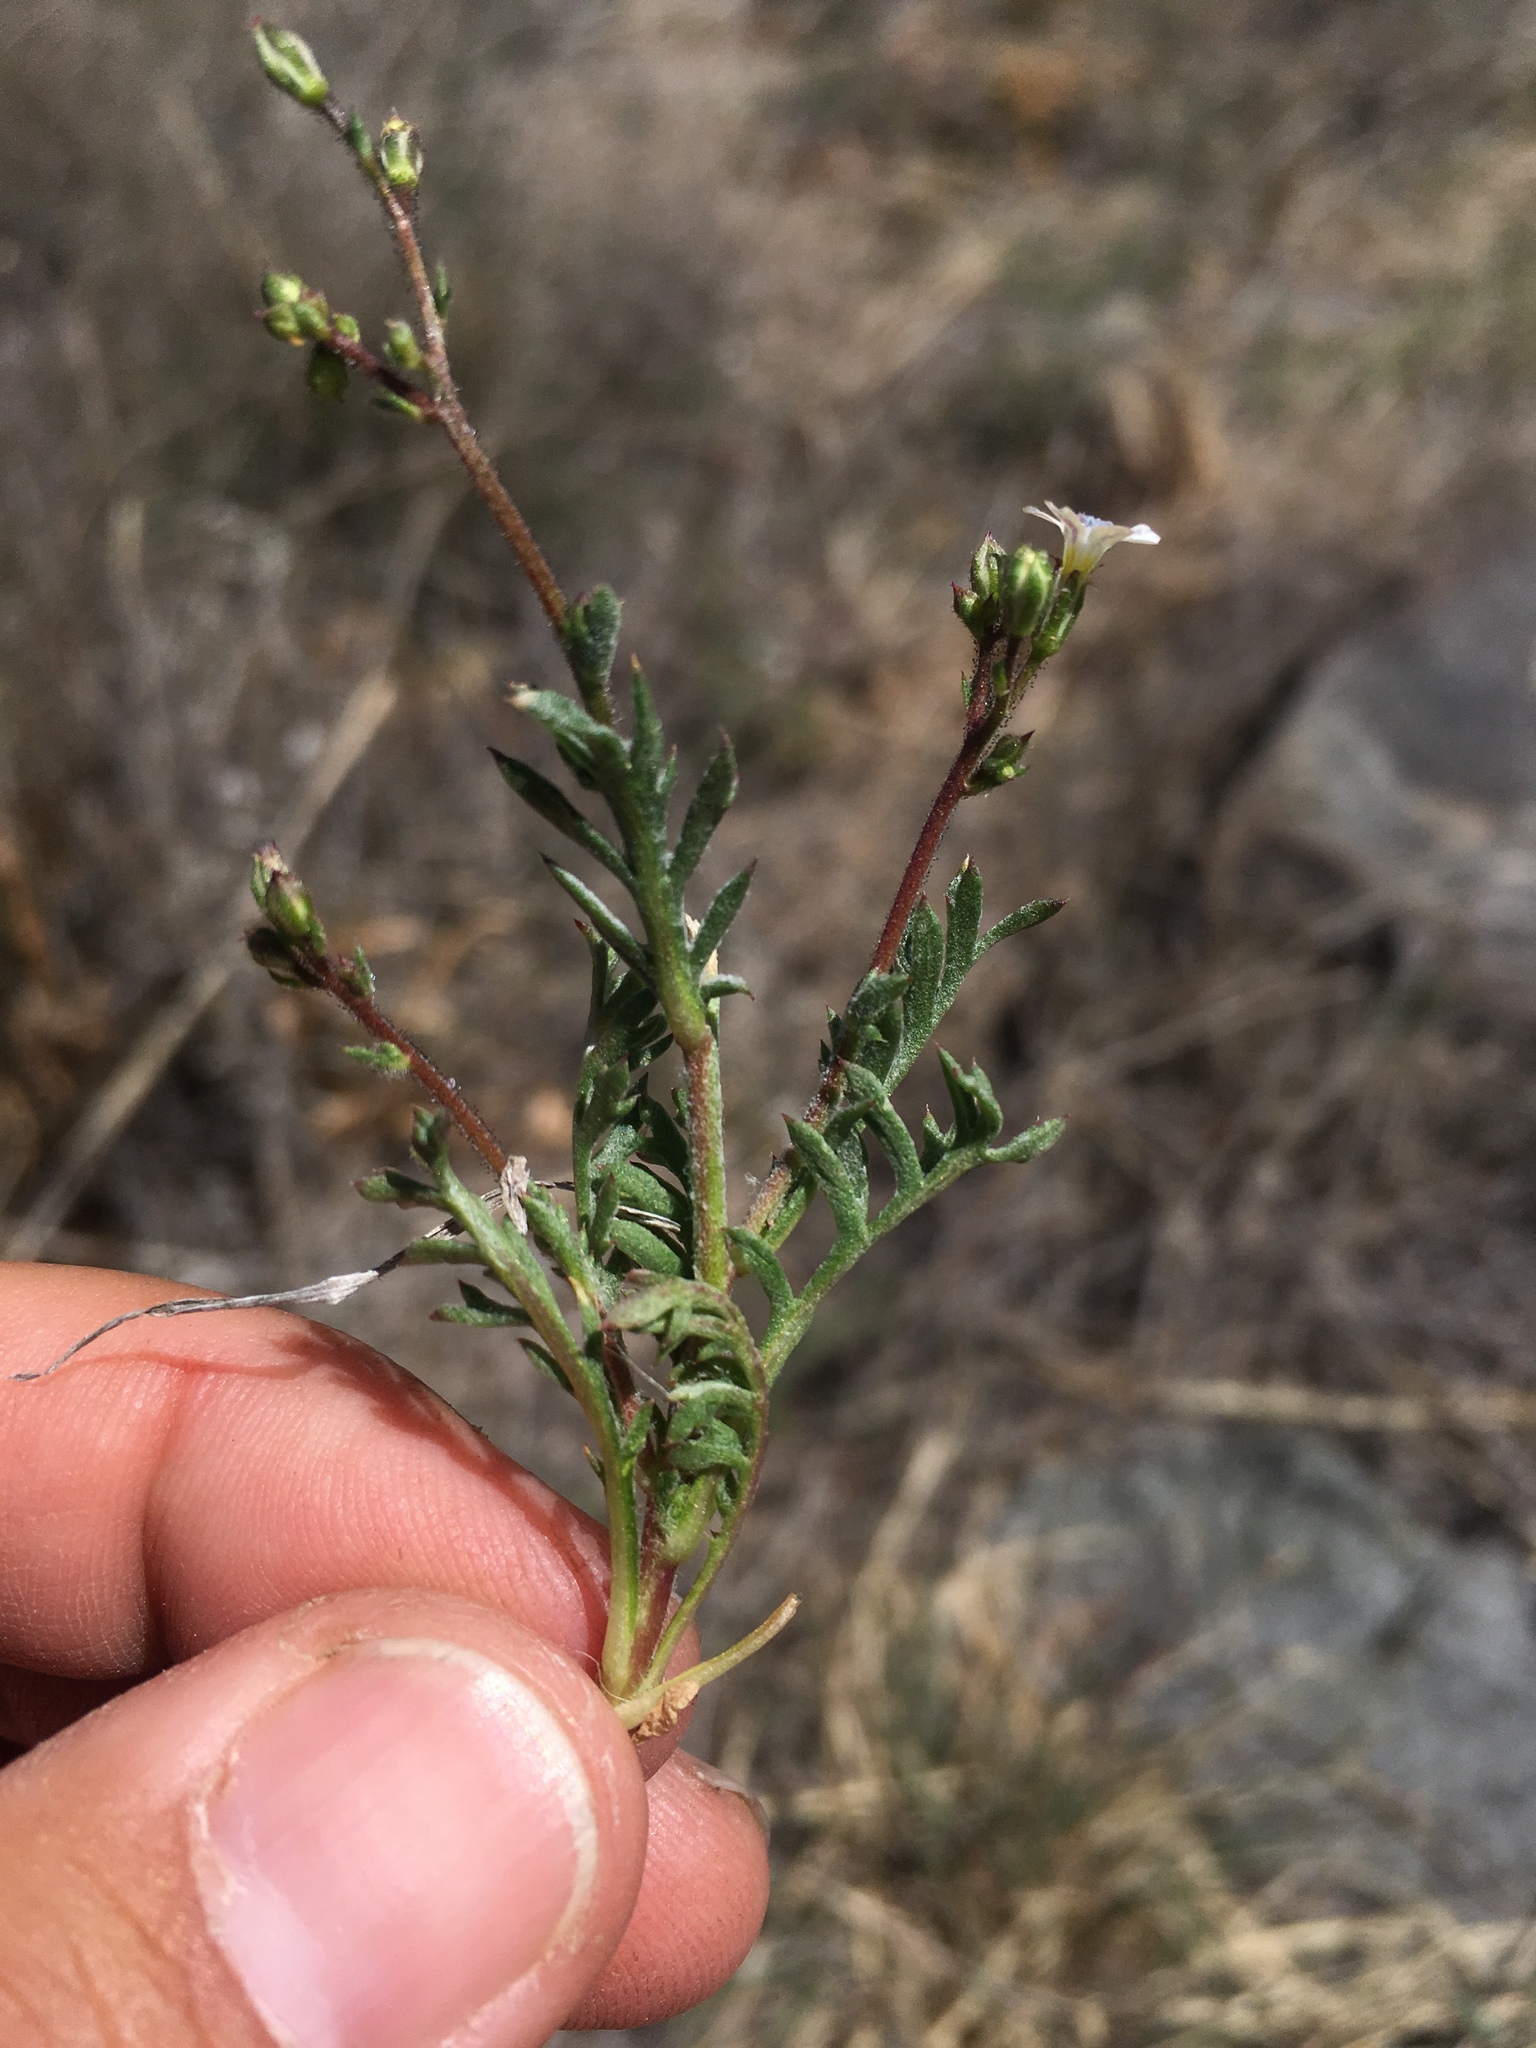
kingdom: Plantae
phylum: Tracheophyta
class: Magnoliopsida
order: Ericales
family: Polemoniaceae
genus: Gilia
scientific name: Gilia mexicana
